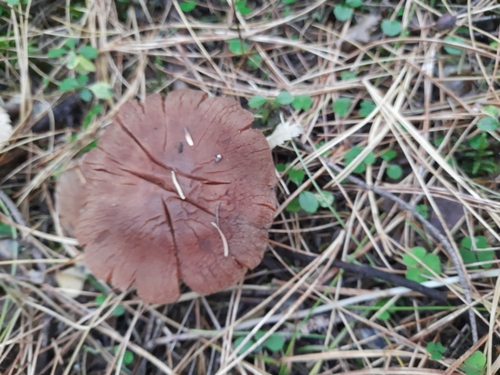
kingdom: Fungi
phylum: Basidiomycota
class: Agaricomycetes
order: Agaricales
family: Cortinariaceae
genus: Cortinarius
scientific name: Cortinarius
